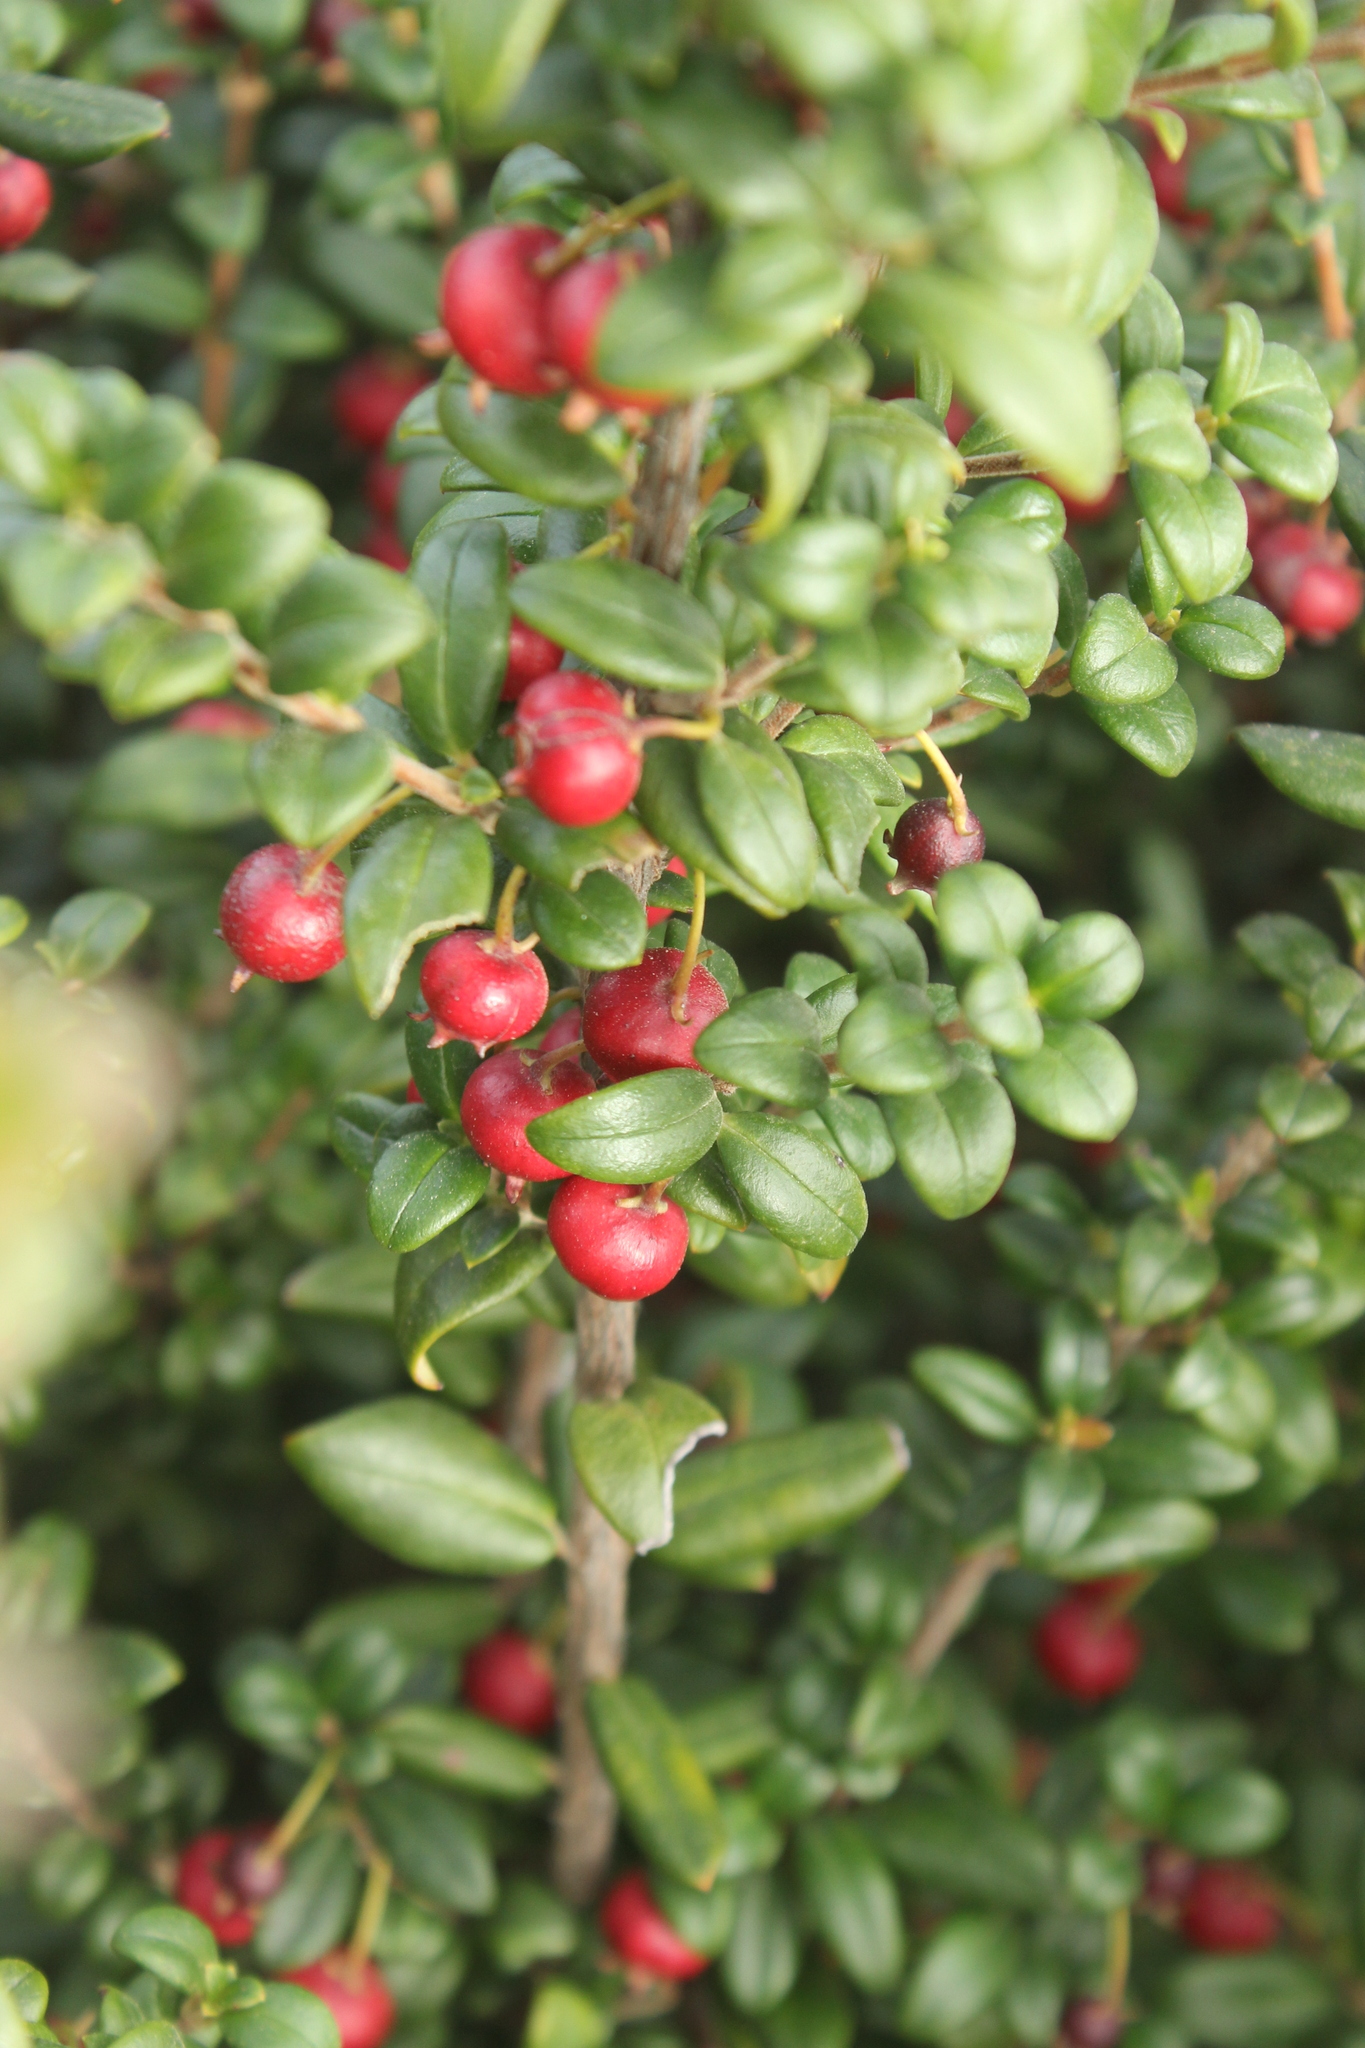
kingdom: Plantae
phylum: Tracheophyta
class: Magnoliopsida
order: Myrtales
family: Myrtaceae
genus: Ugni
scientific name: Ugni molinae
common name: Chilean-guava
